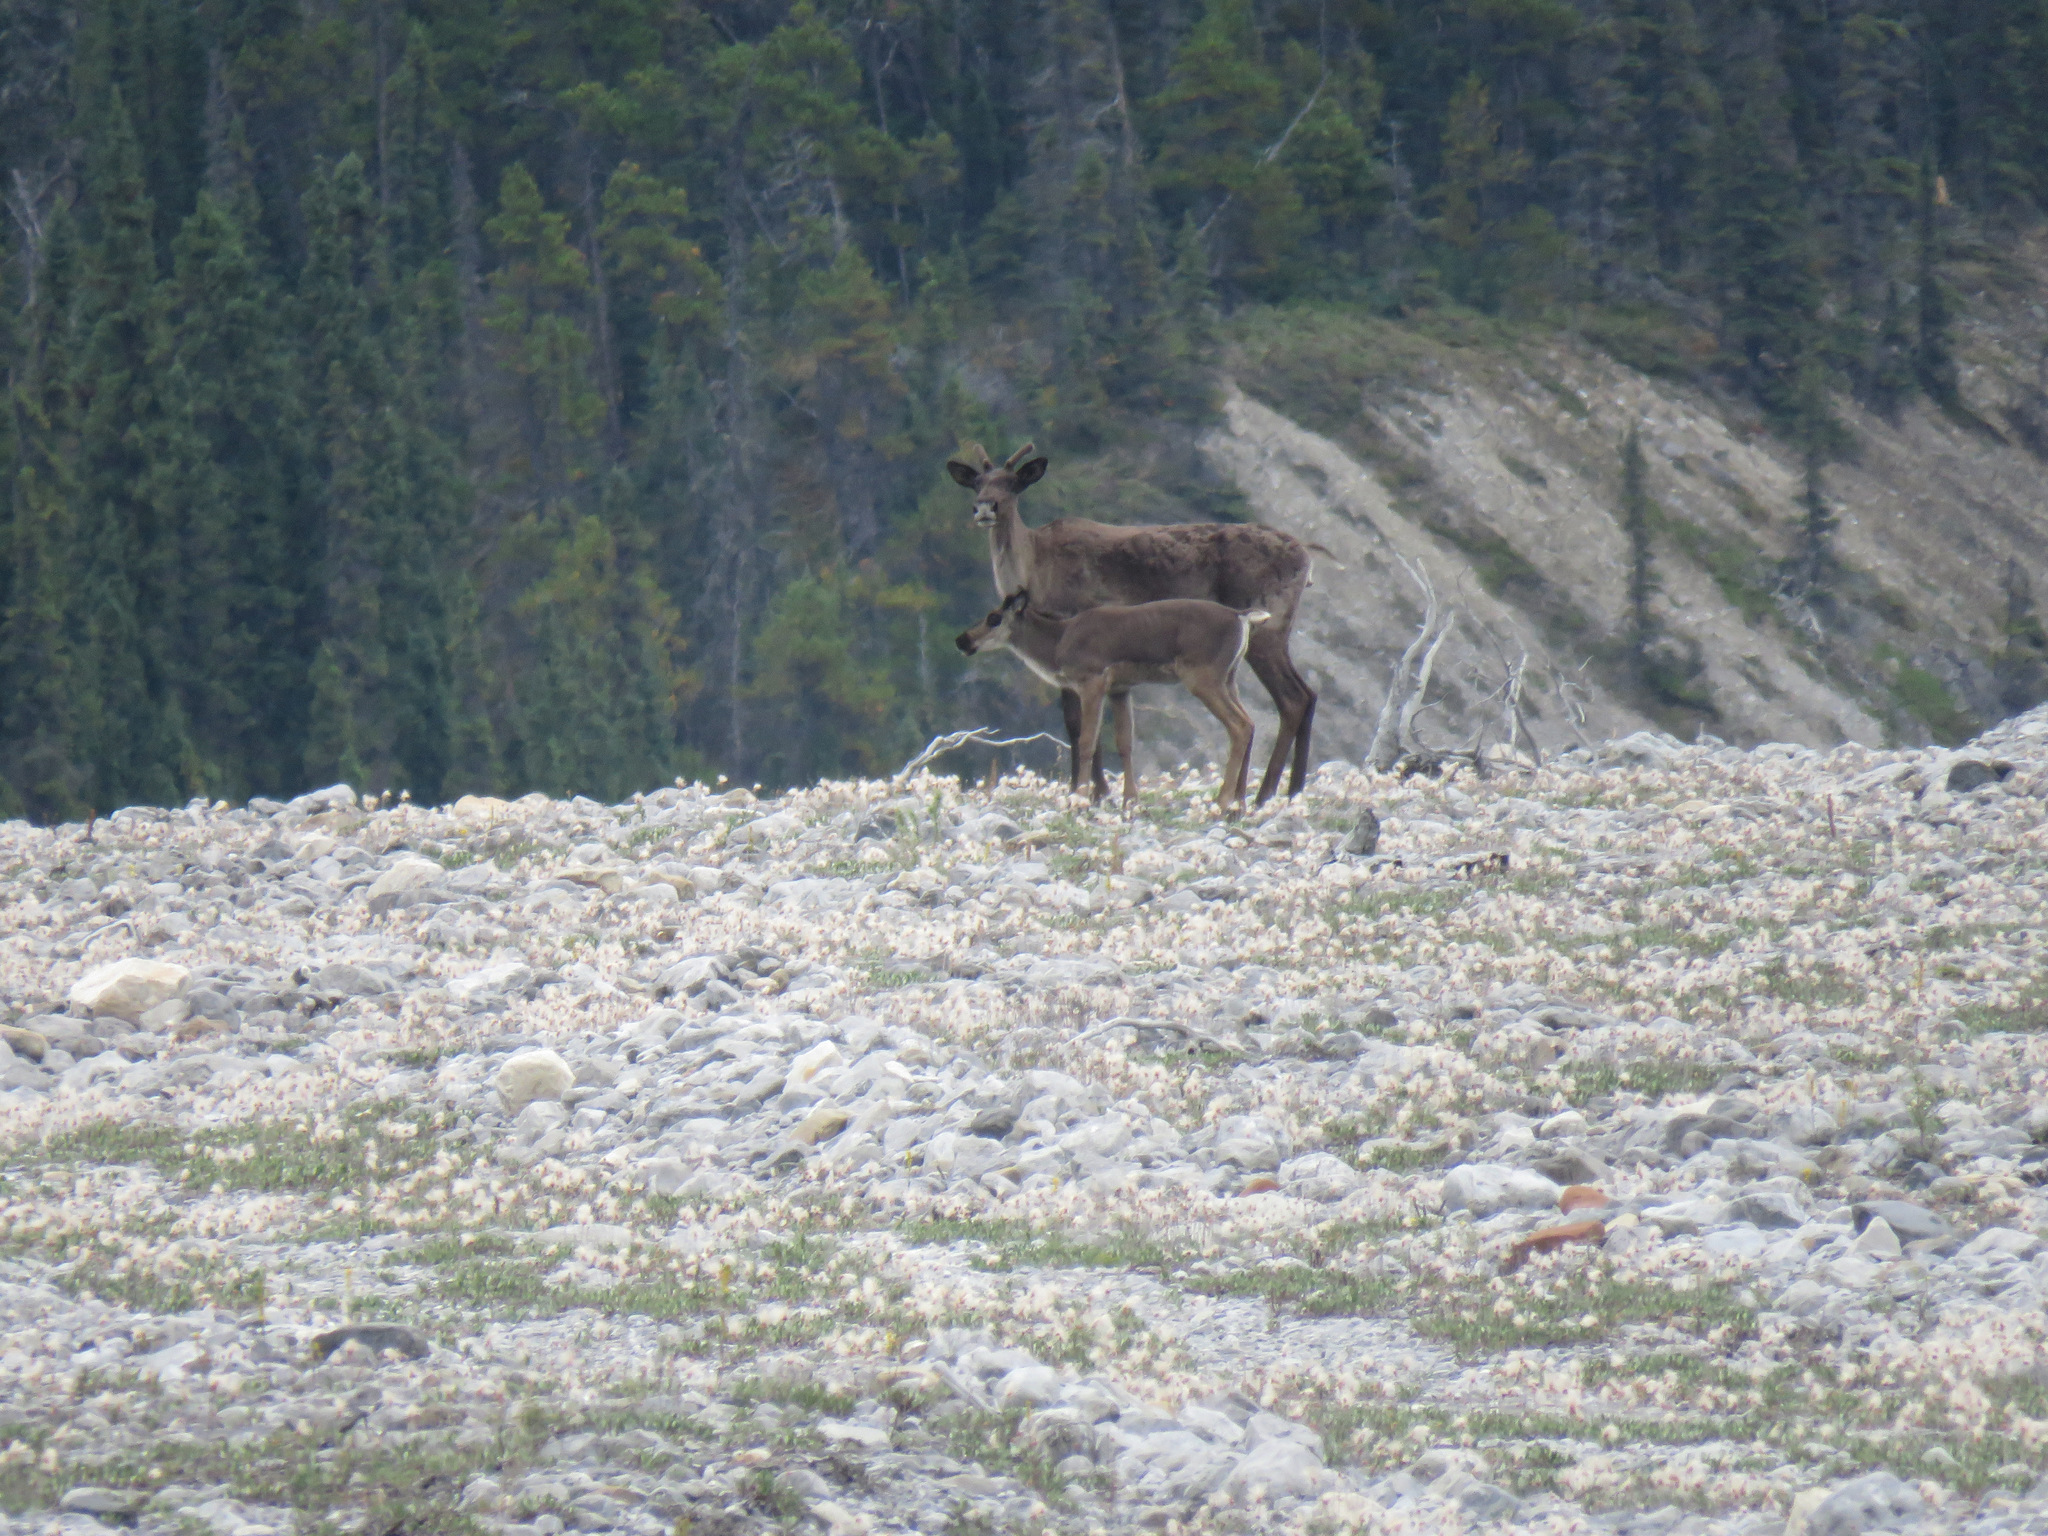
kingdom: Animalia
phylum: Chordata
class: Mammalia
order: Artiodactyla
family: Cervidae
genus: Rangifer
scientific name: Rangifer tarandus
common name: Reindeer
